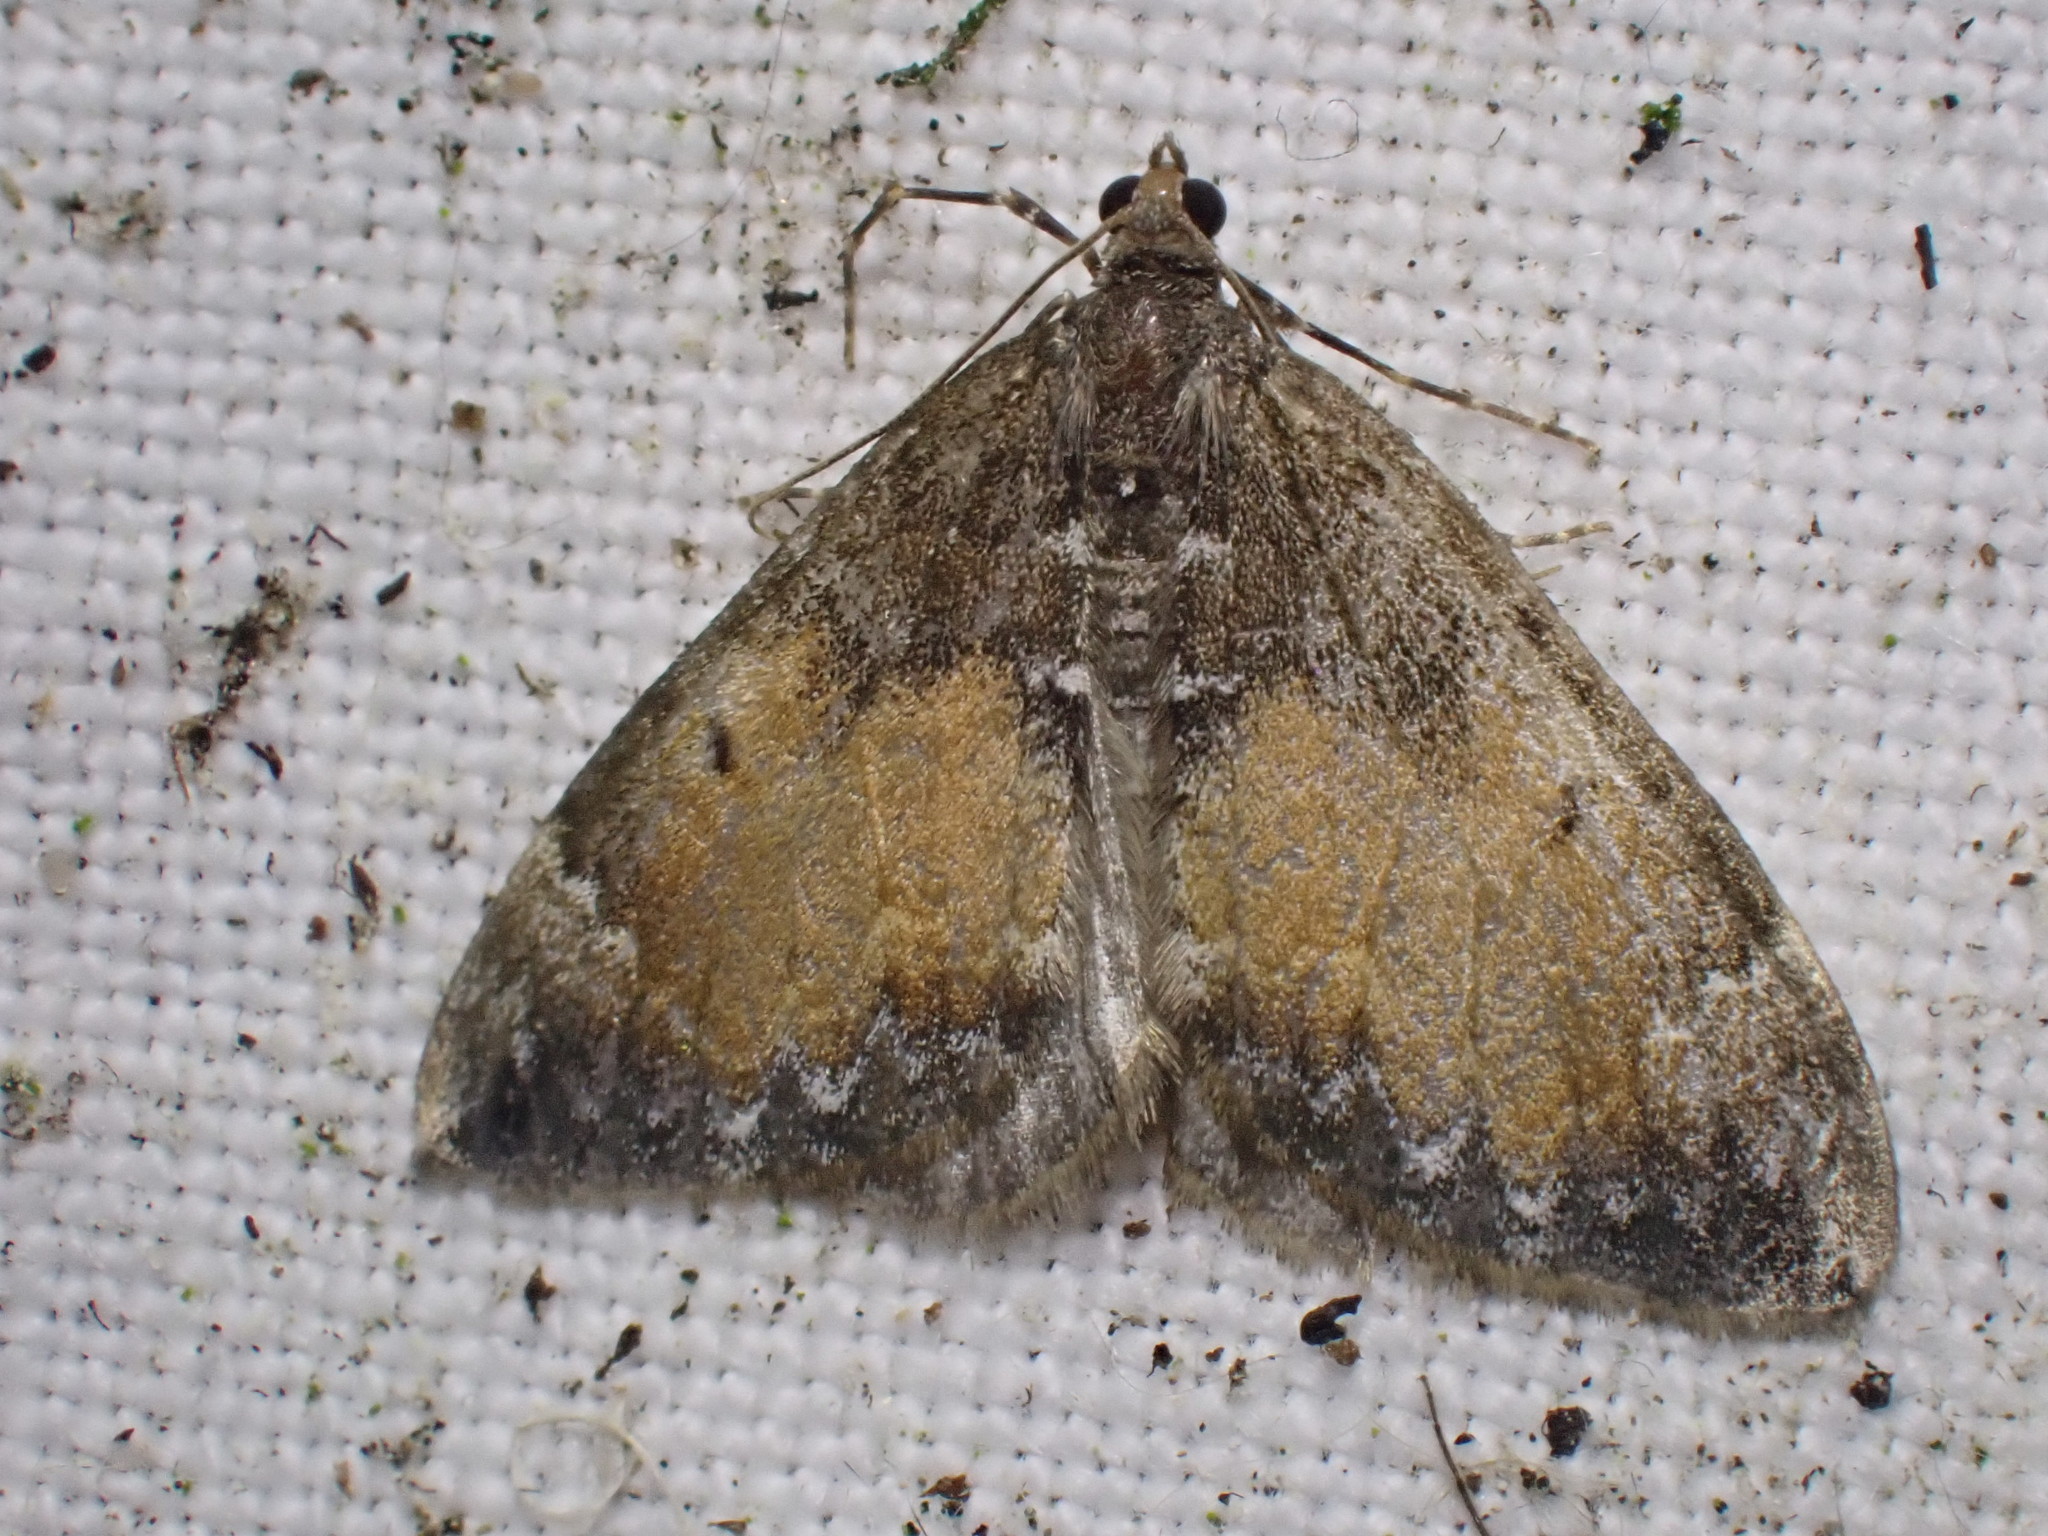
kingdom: Animalia
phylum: Arthropoda
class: Insecta
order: Lepidoptera
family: Geometridae
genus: Dysstroma
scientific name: Dysstroma truncata
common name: Common marbled carpet
